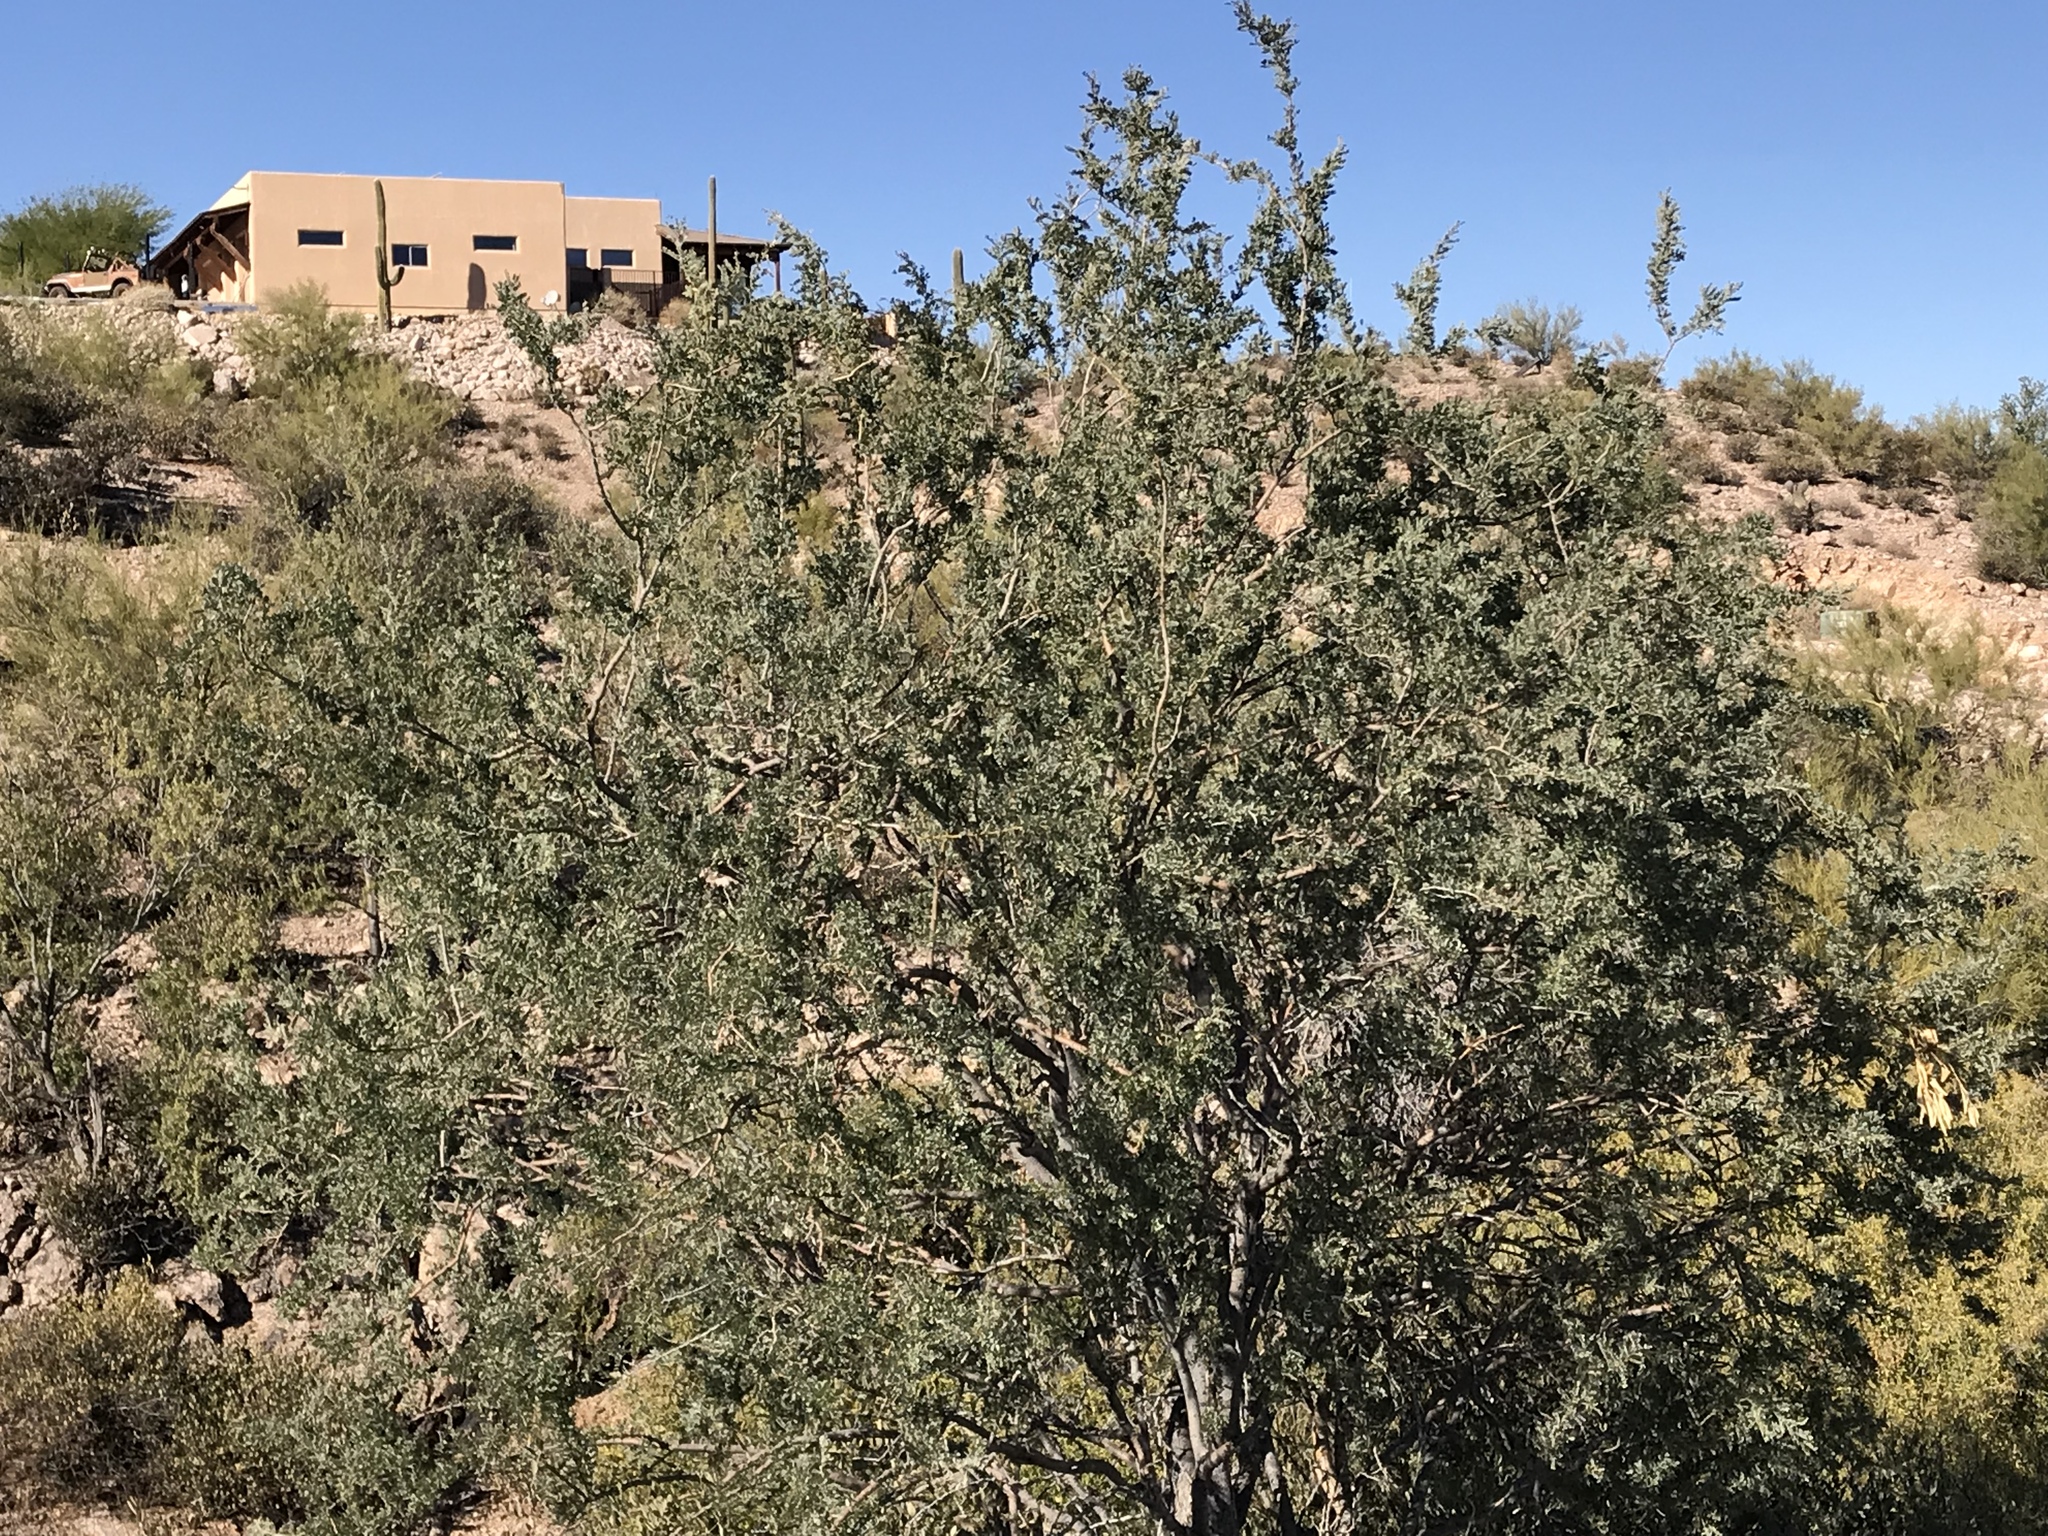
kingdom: Plantae
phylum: Tracheophyta
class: Magnoliopsida
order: Fabales
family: Fabaceae
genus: Olneya
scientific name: Olneya tesota
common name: Desert ironwood
